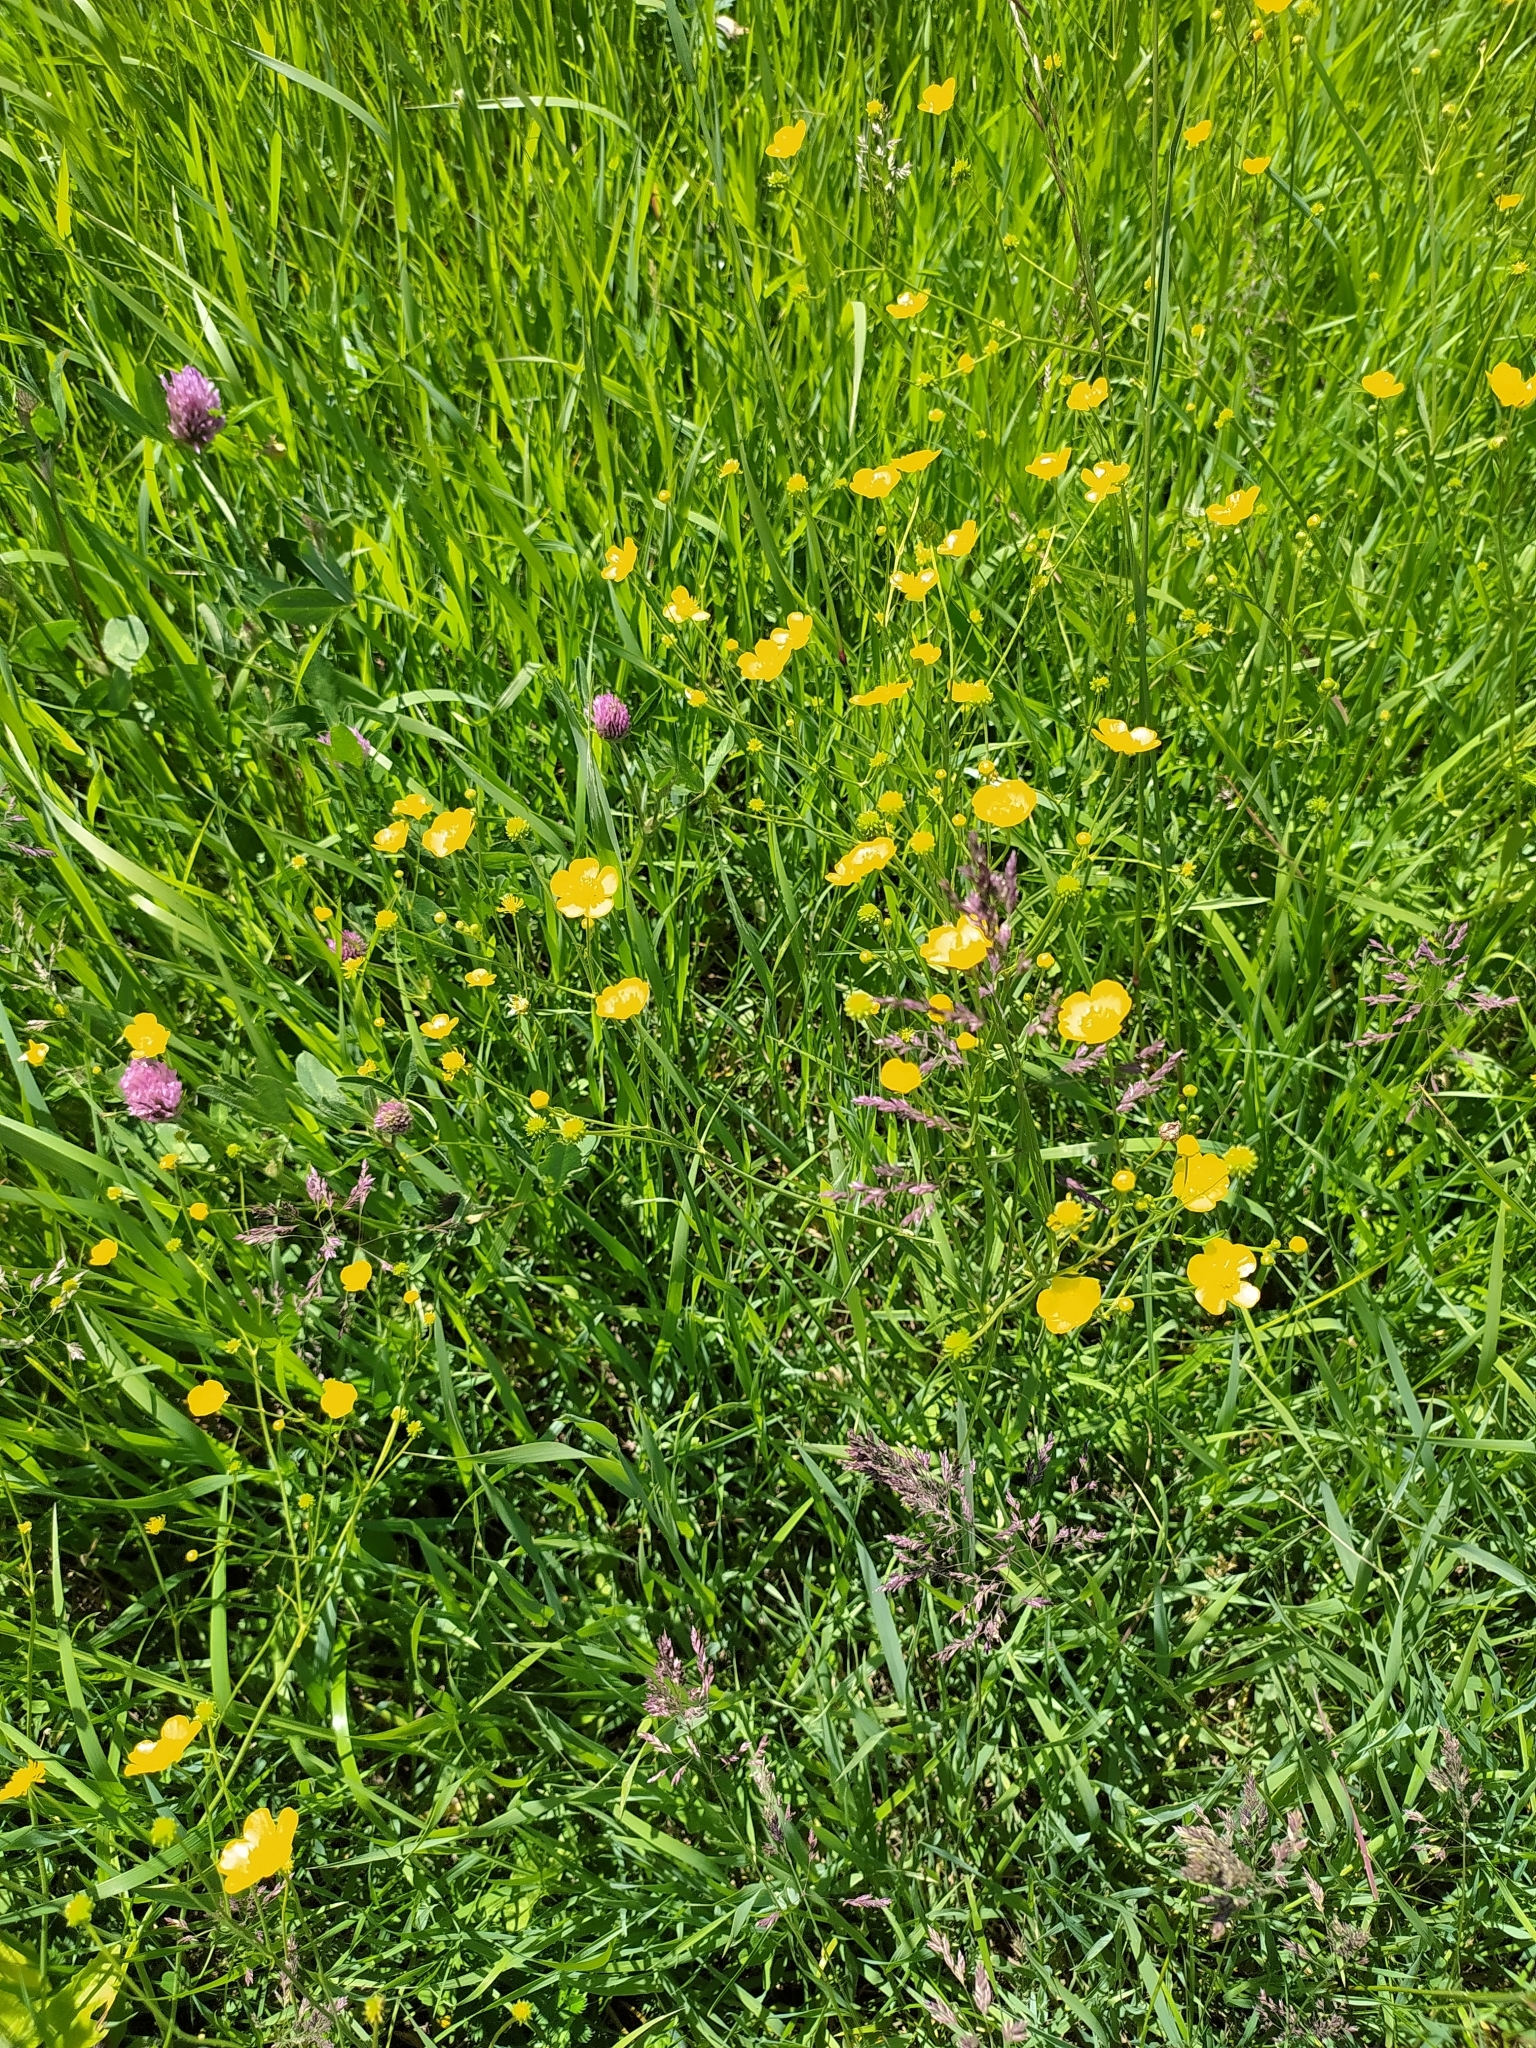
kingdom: Plantae
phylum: Tracheophyta
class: Magnoliopsida
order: Ranunculales
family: Ranunculaceae
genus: Ranunculus
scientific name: Ranunculus acris
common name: Meadow buttercup
